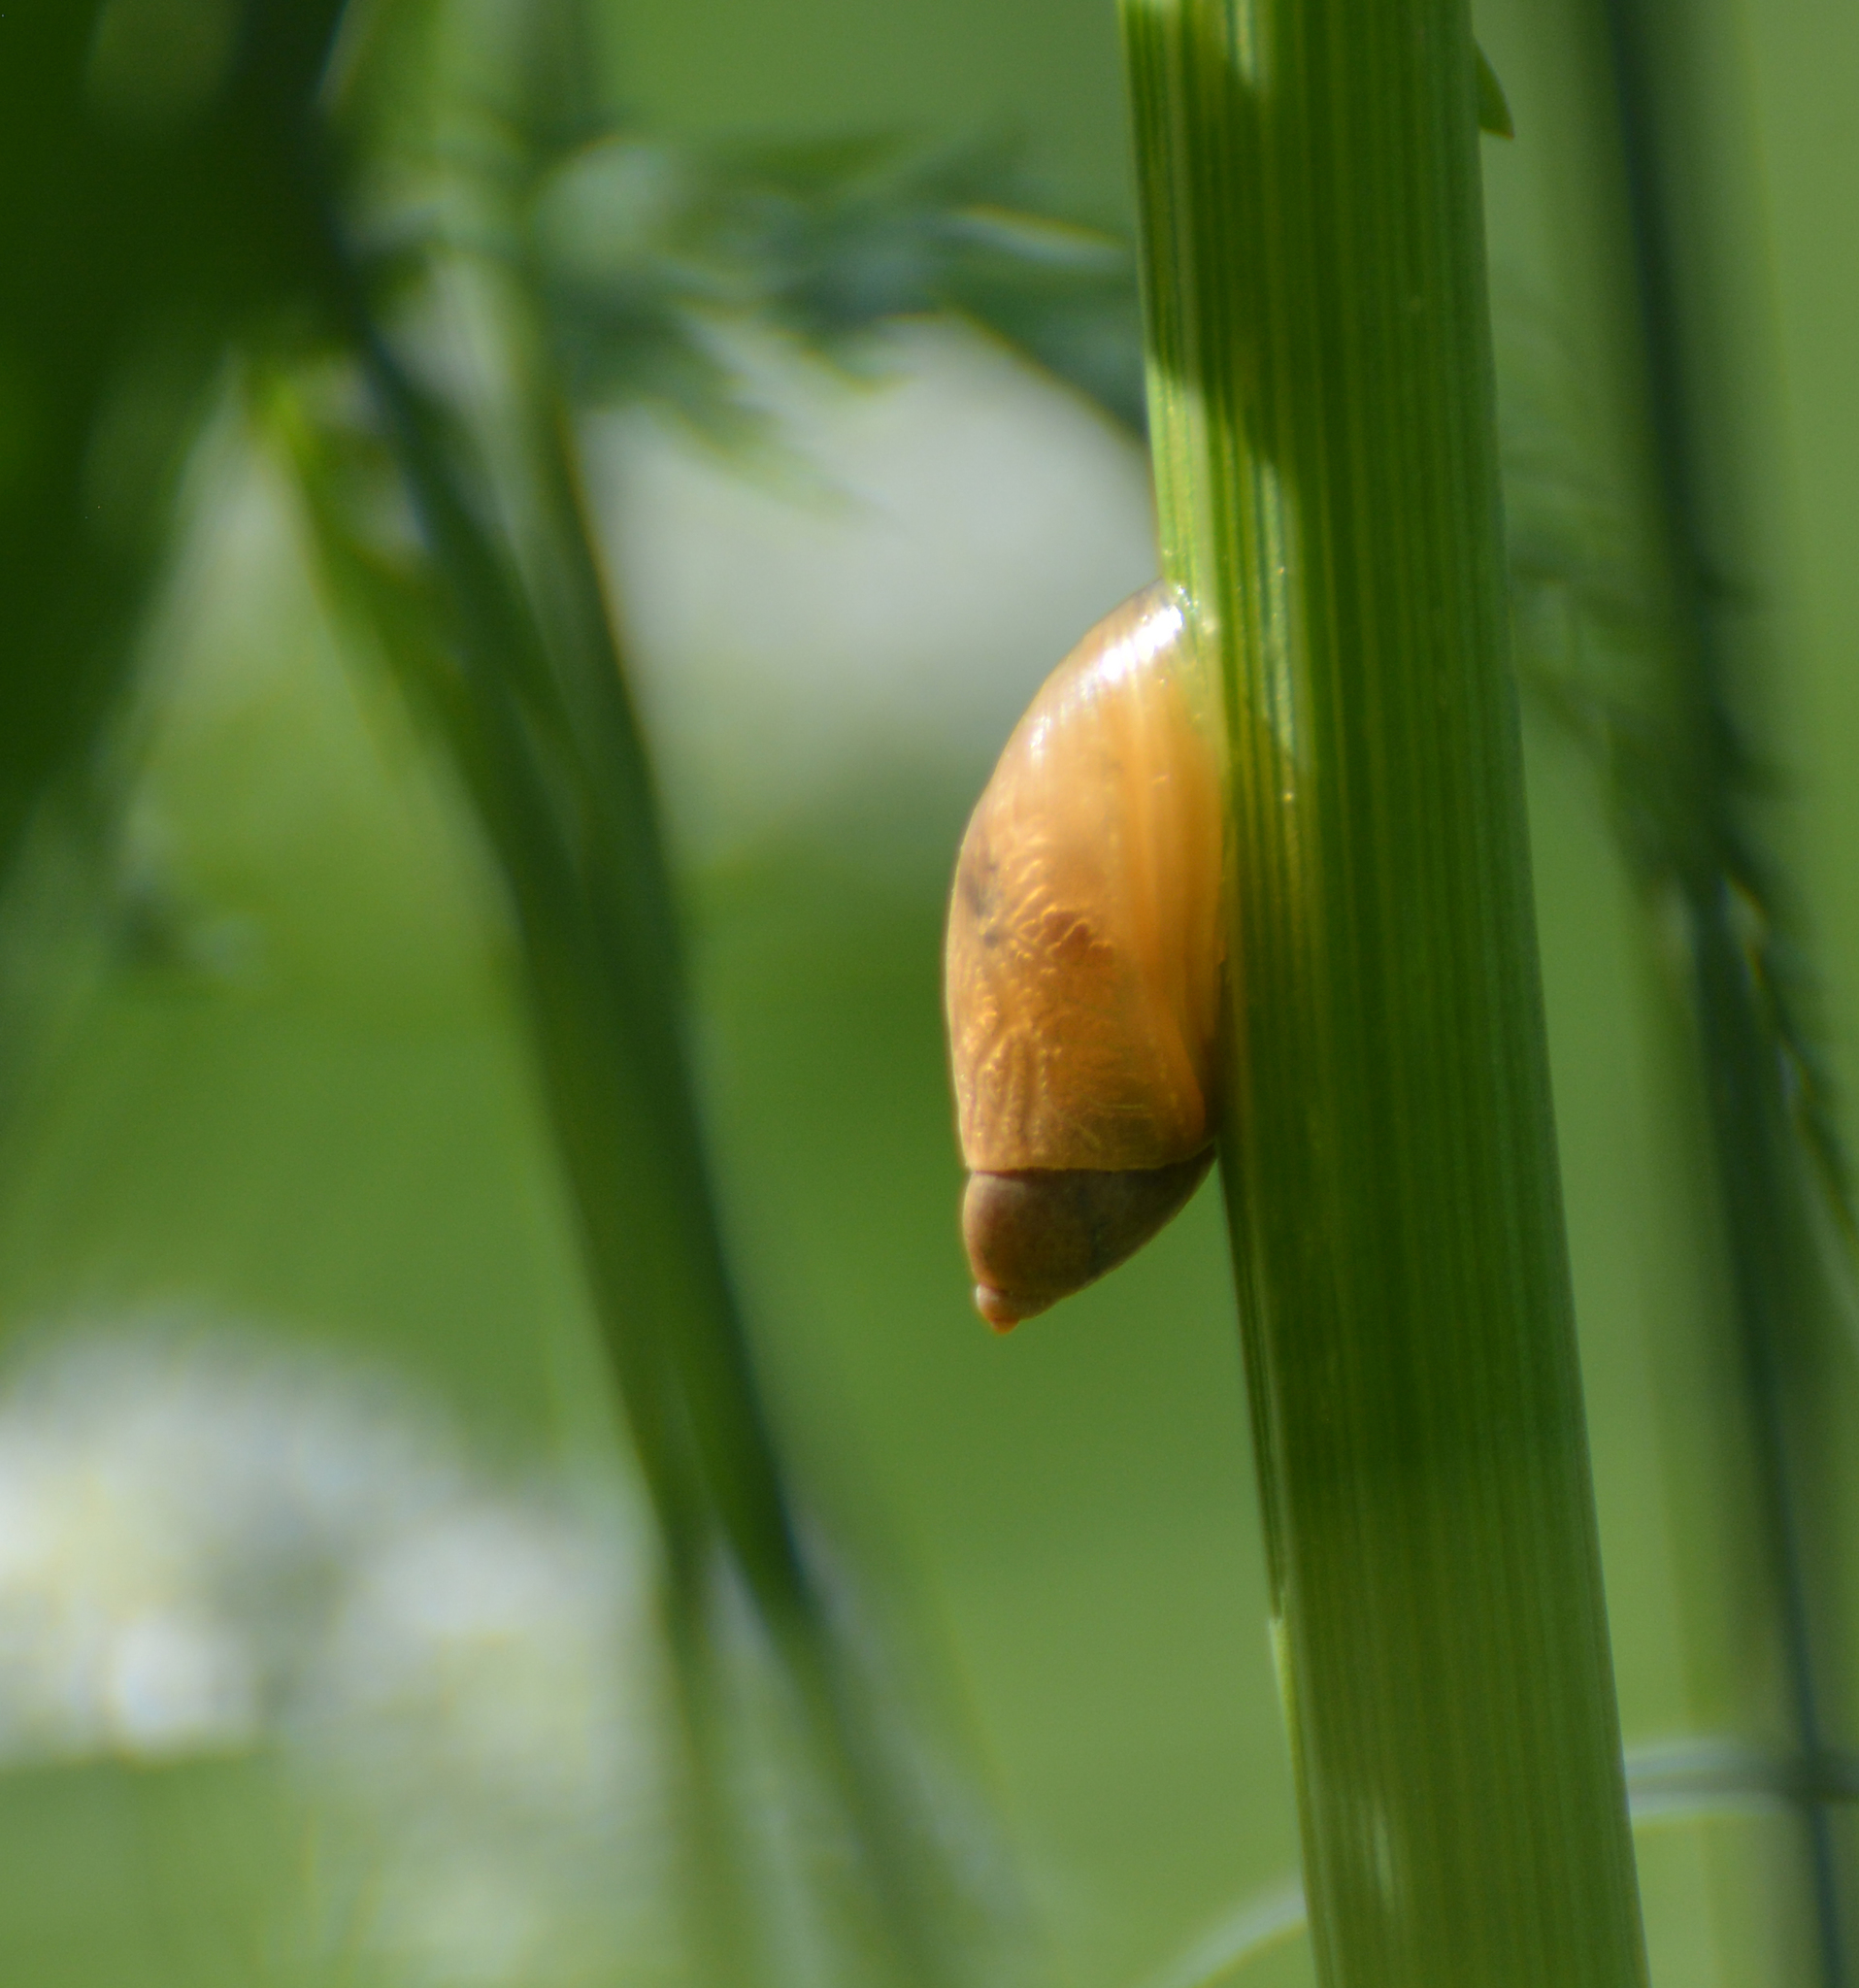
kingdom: Animalia
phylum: Mollusca
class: Gastropoda
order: Stylommatophora
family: Succineidae
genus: Succinea
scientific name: Succinea putris
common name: European ambersnail
